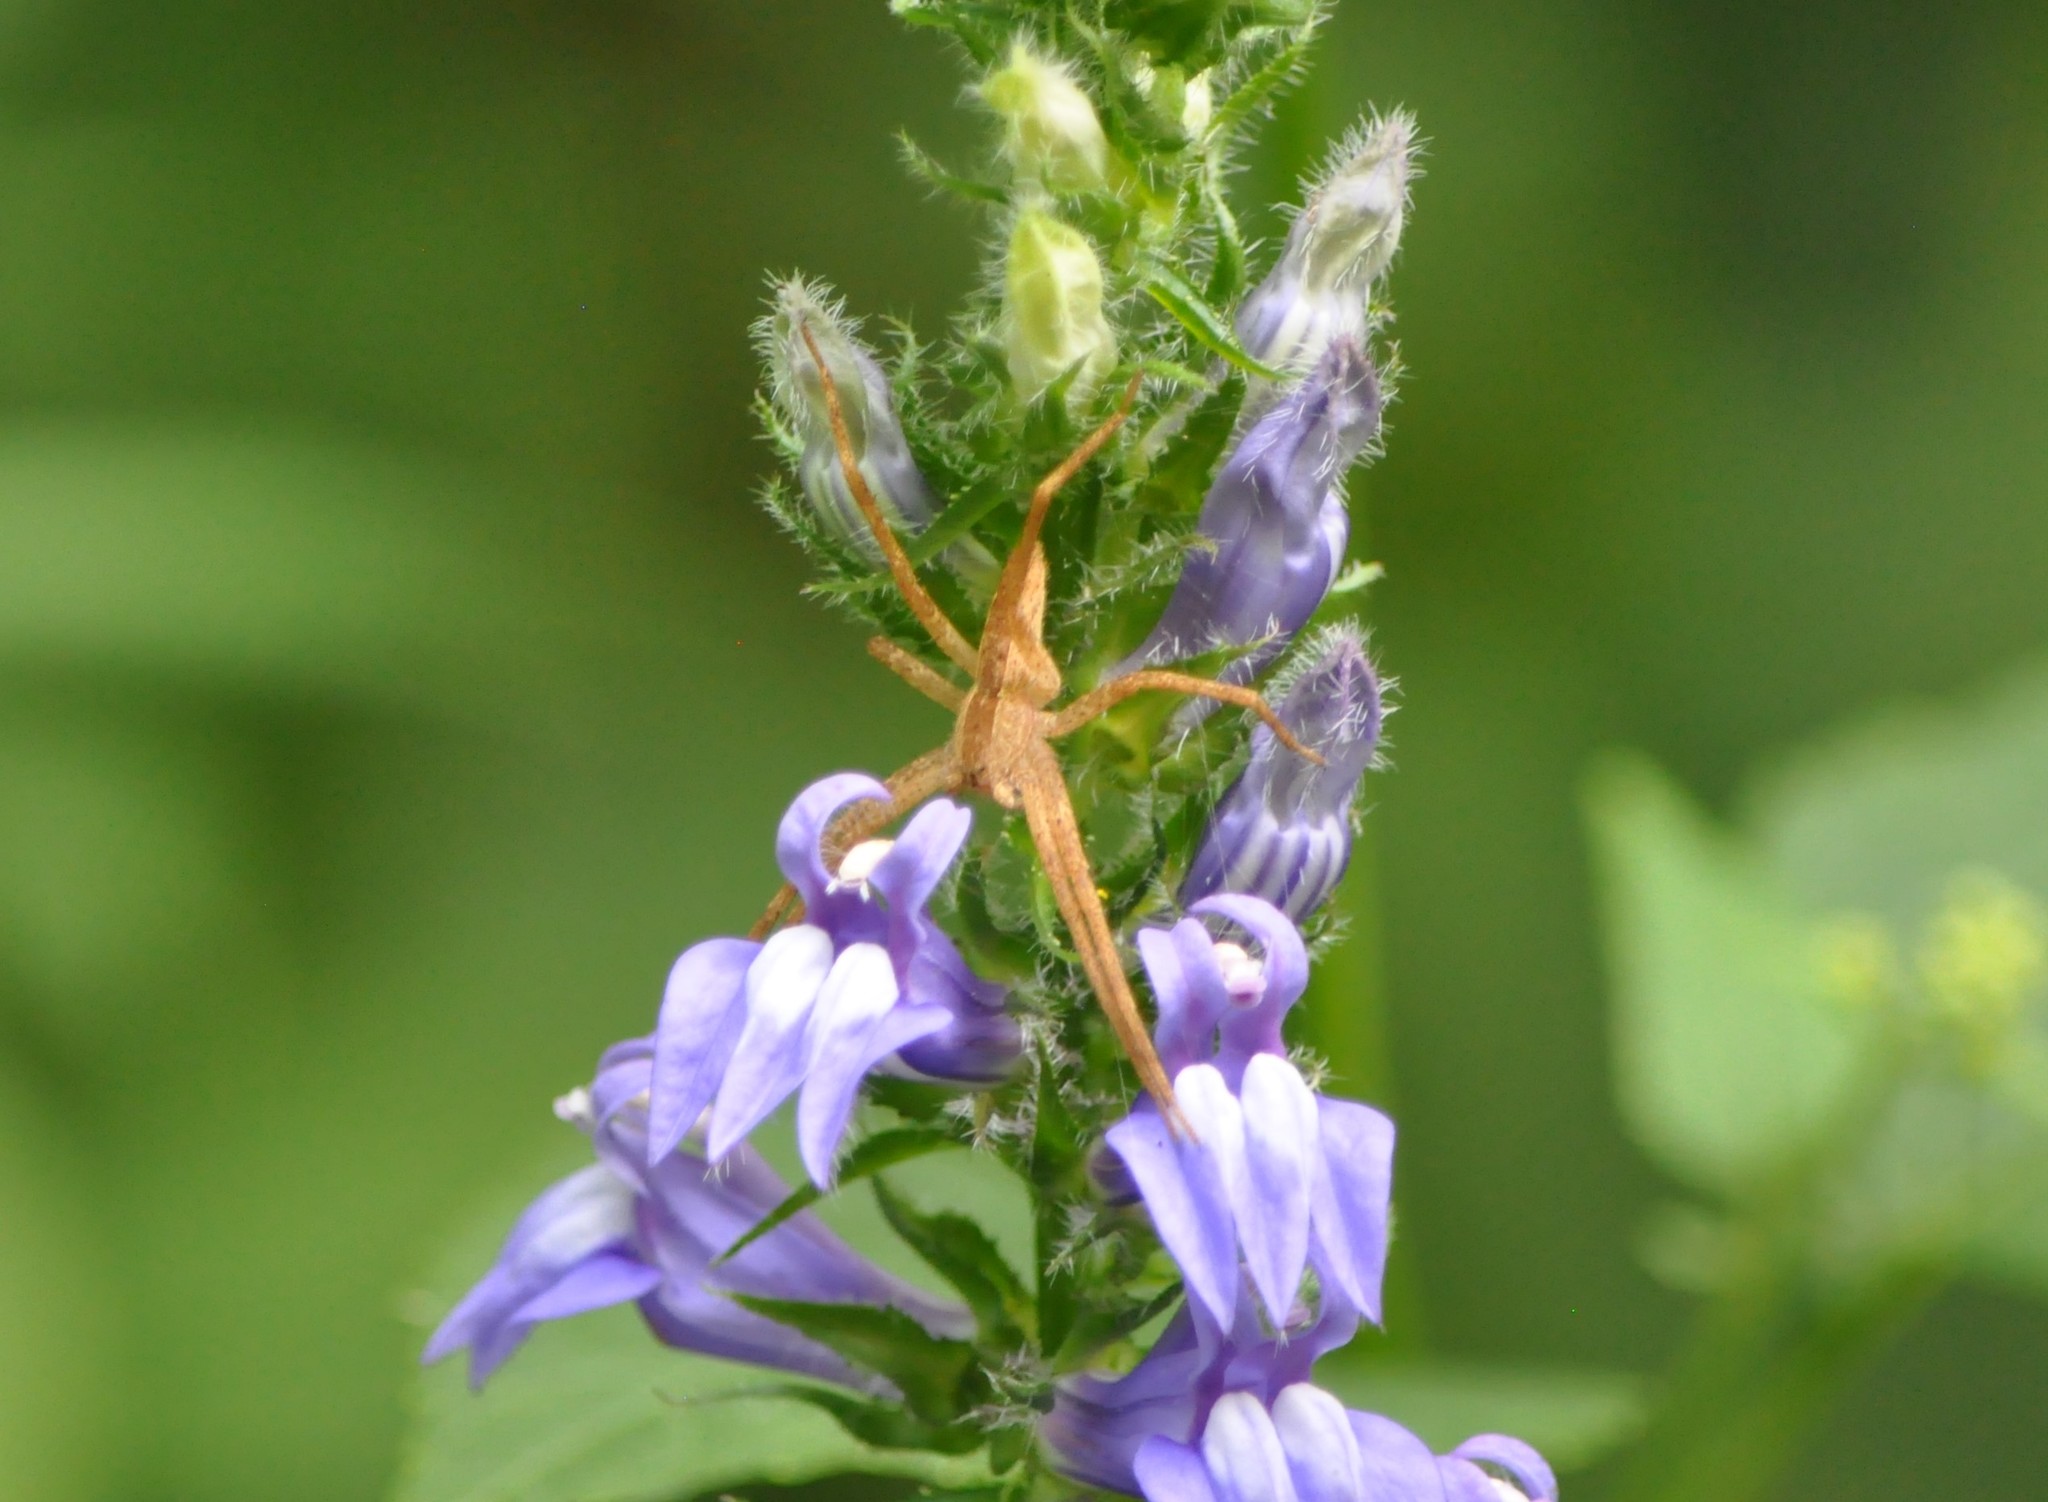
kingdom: Animalia
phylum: Arthropoda
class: Arachnida
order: Araneae
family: Pisauridae
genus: Pisaurina
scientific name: Pisaurina mira
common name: American nursery web spider
